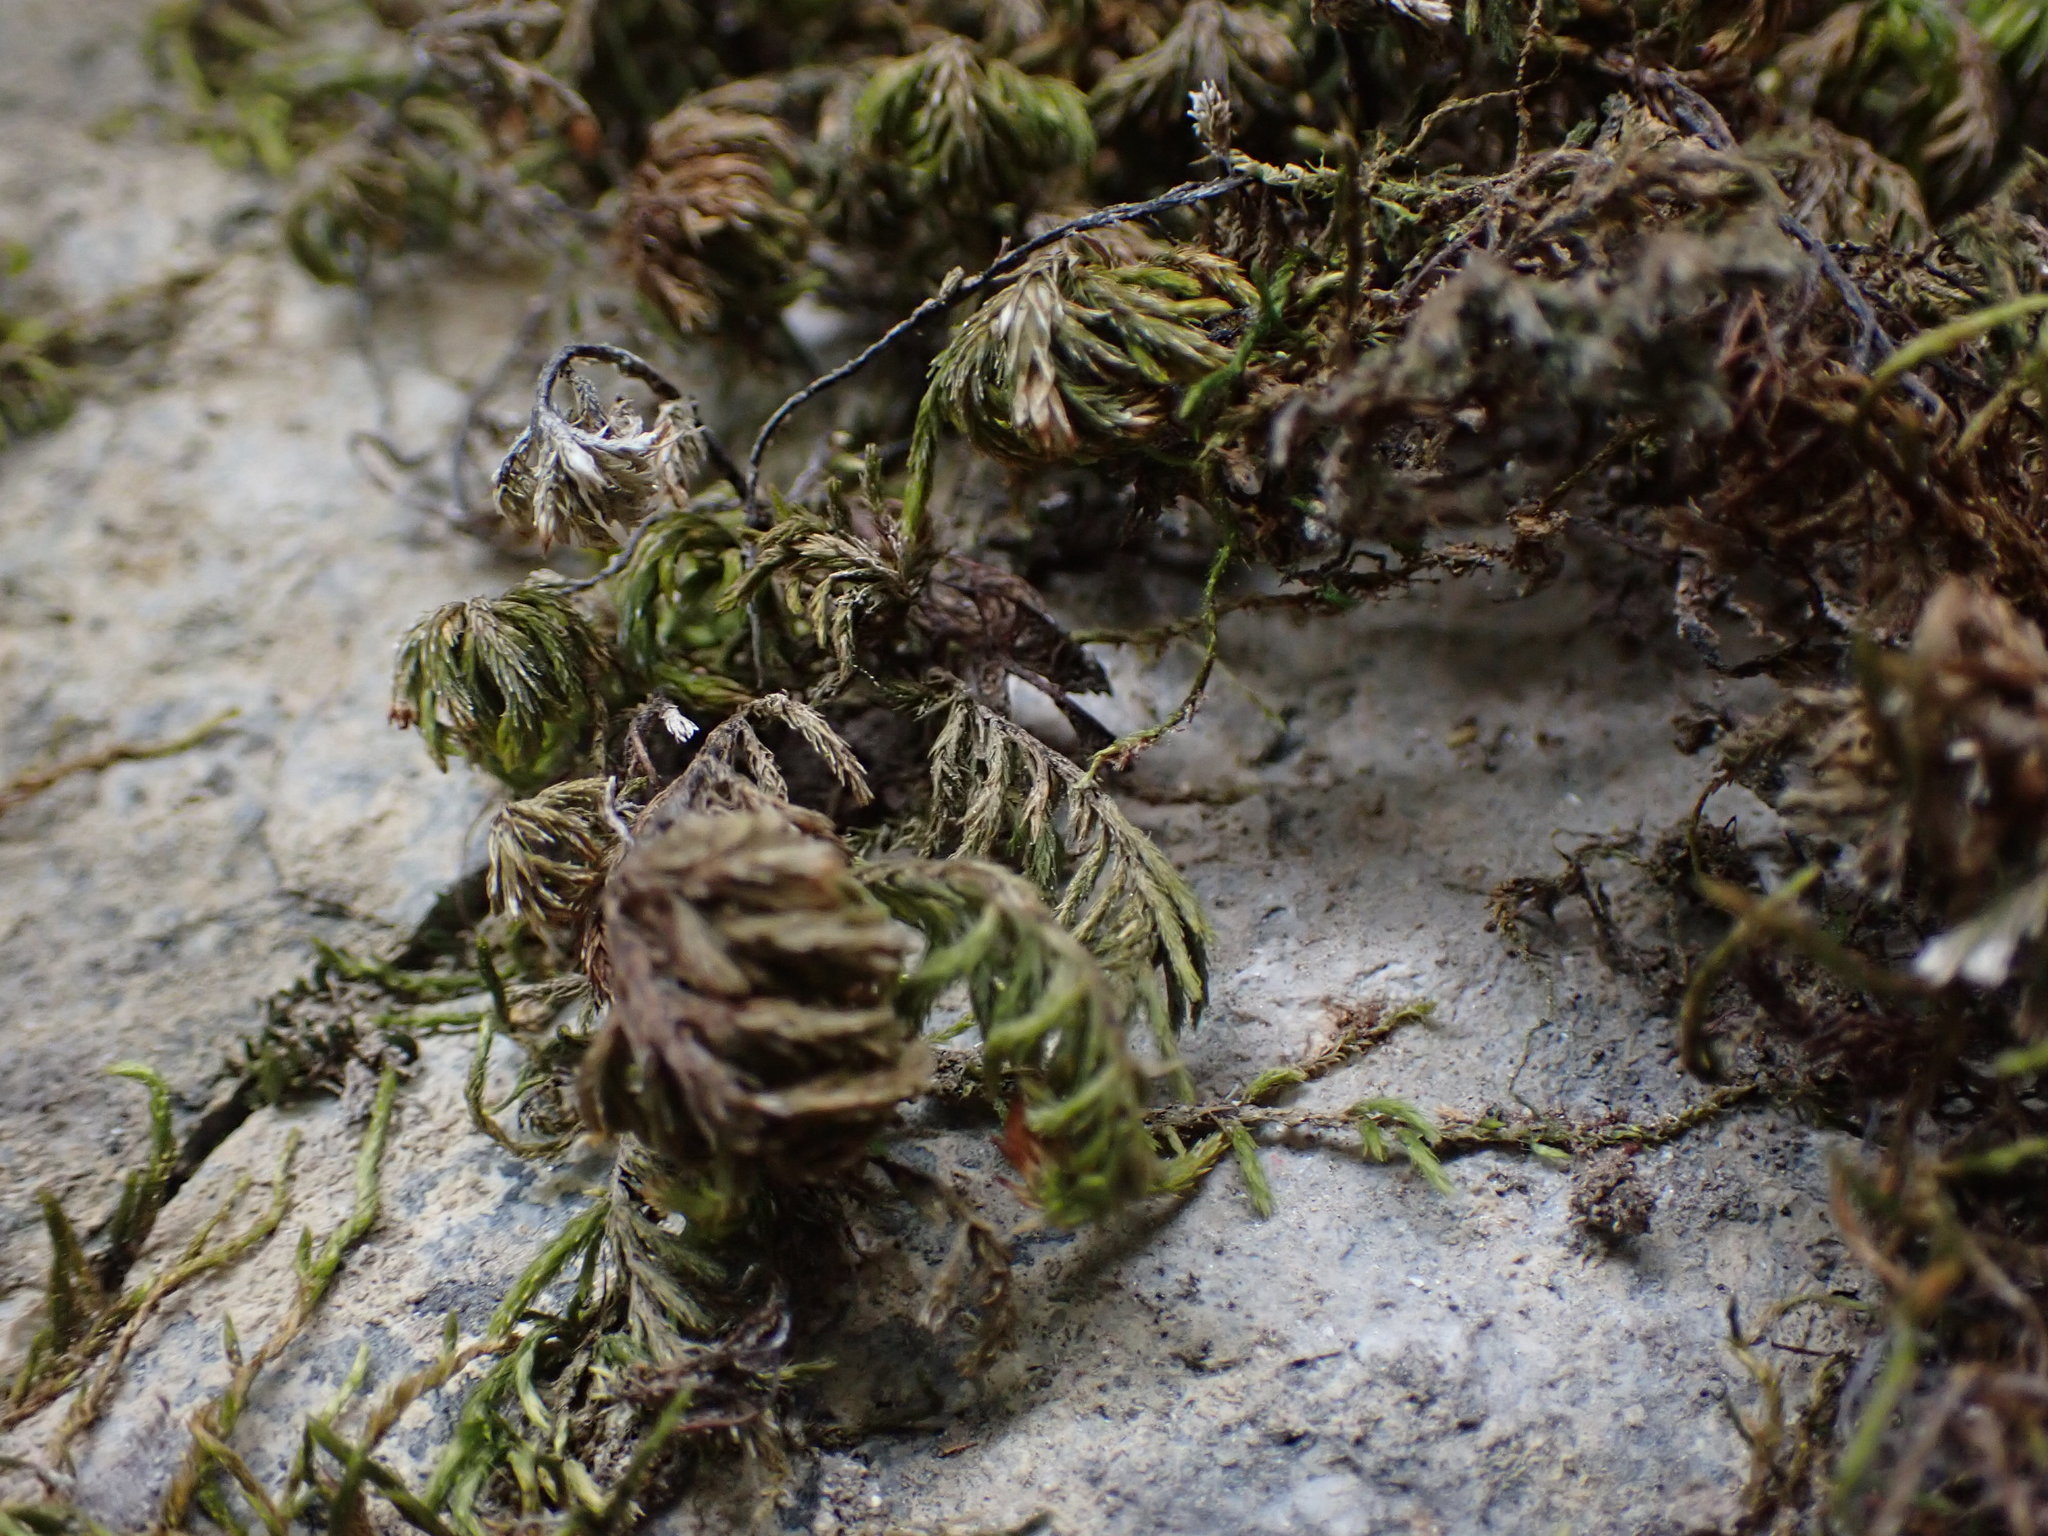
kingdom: Plantae
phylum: Bryophyta
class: Bryopsida
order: Hypnales
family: Cryphaeaceae
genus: Dendroalsia
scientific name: Dendroalsia abietina
